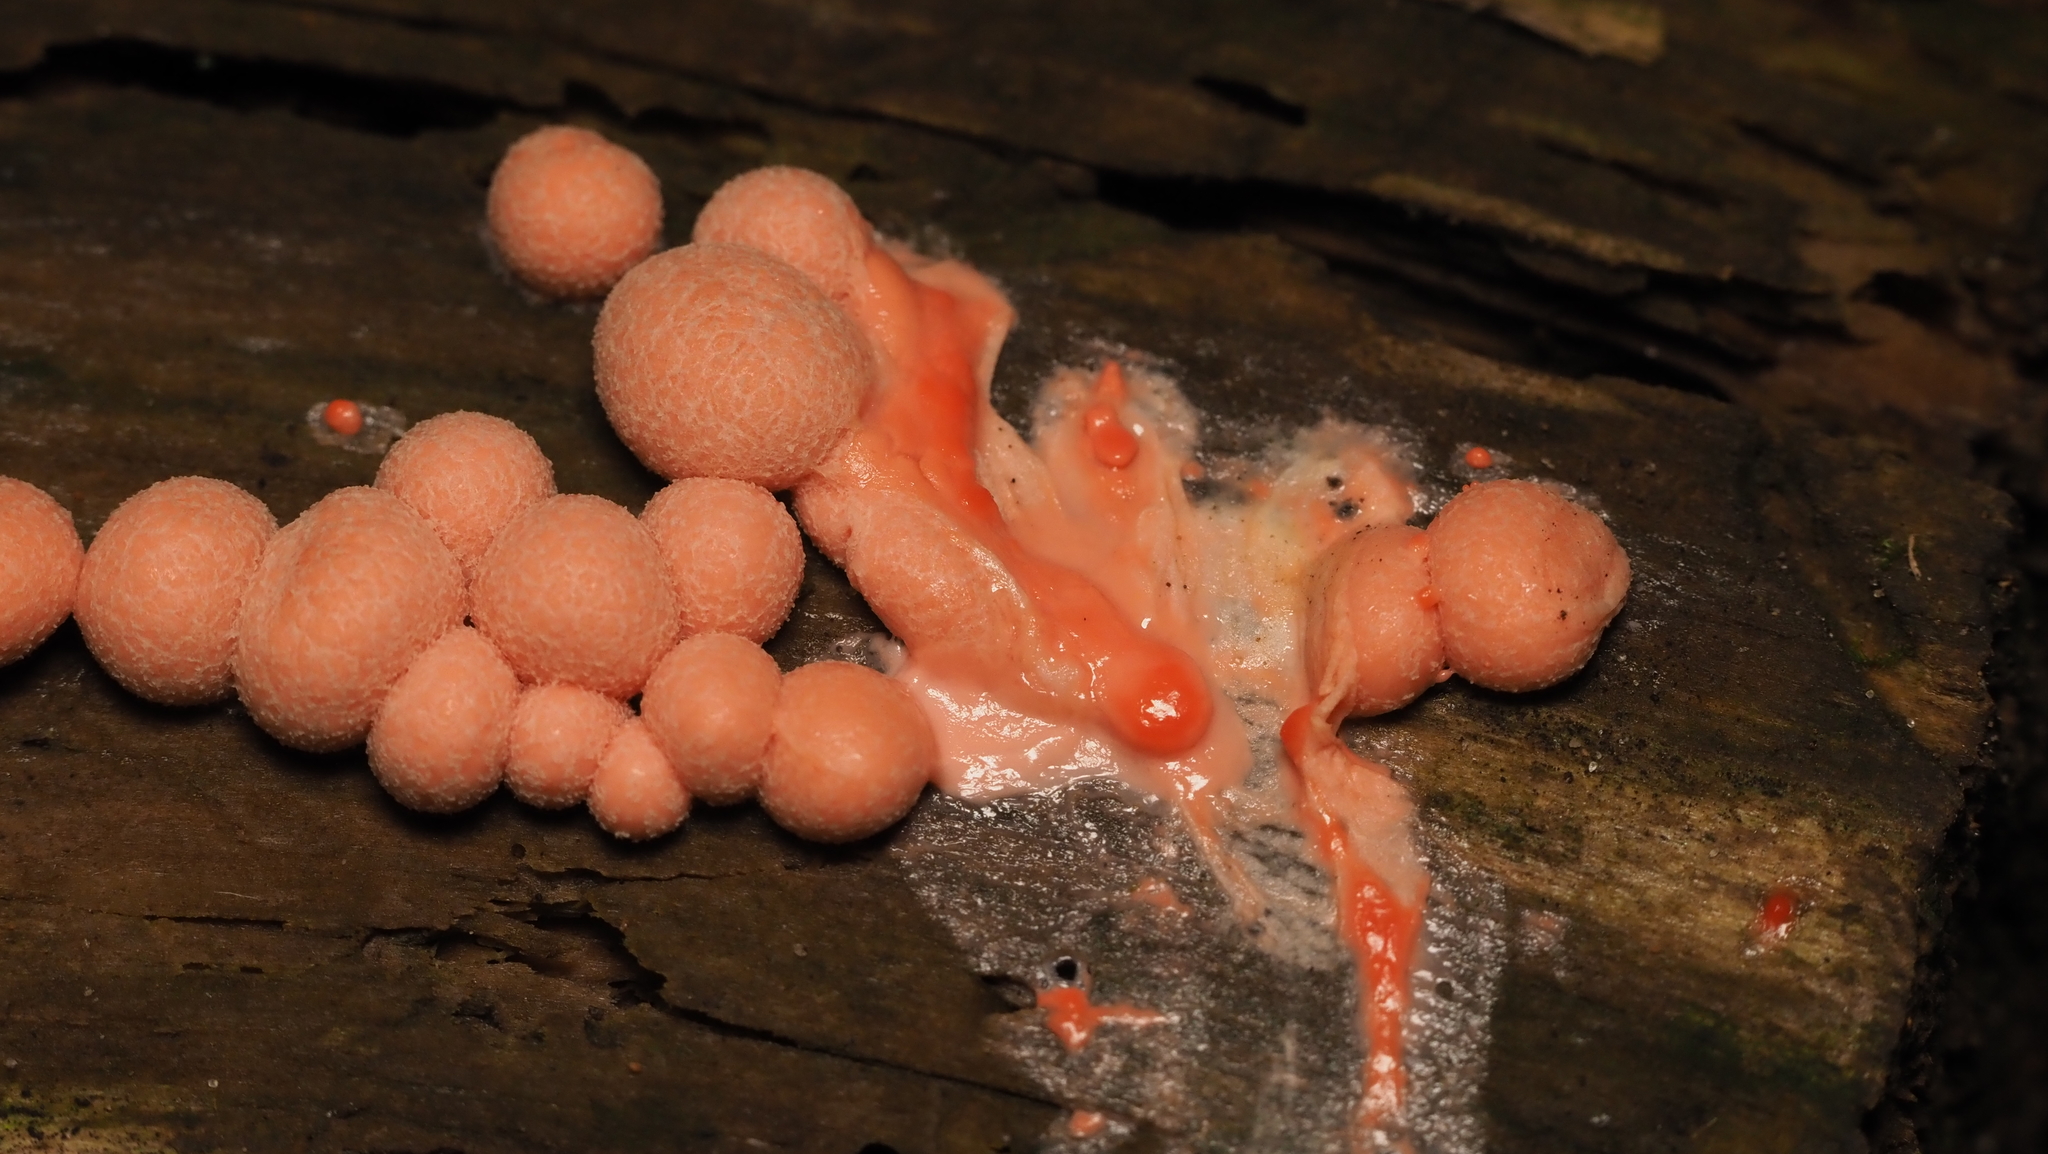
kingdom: Protozoa
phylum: Mycetozoa
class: Myxomycetes
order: Cribrariales
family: Tubiferaceae
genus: Lycogala
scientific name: Lycogala epidendrum
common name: Wolf's milk
